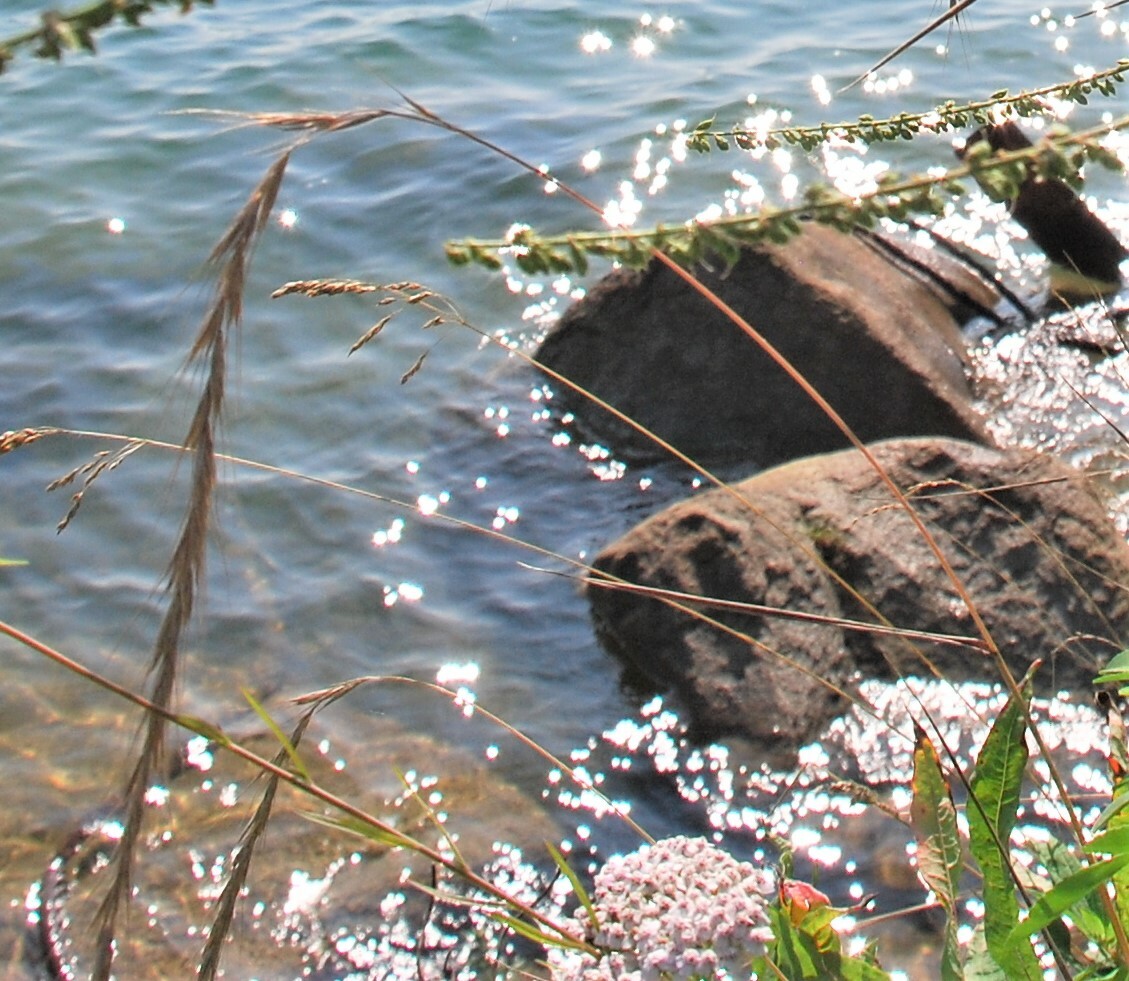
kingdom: Plantae
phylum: Tracheophyta
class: Liliopsida
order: Poales
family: Poaceae
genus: Elymus
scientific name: Elymus sibiricus
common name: Siberian wildrye
